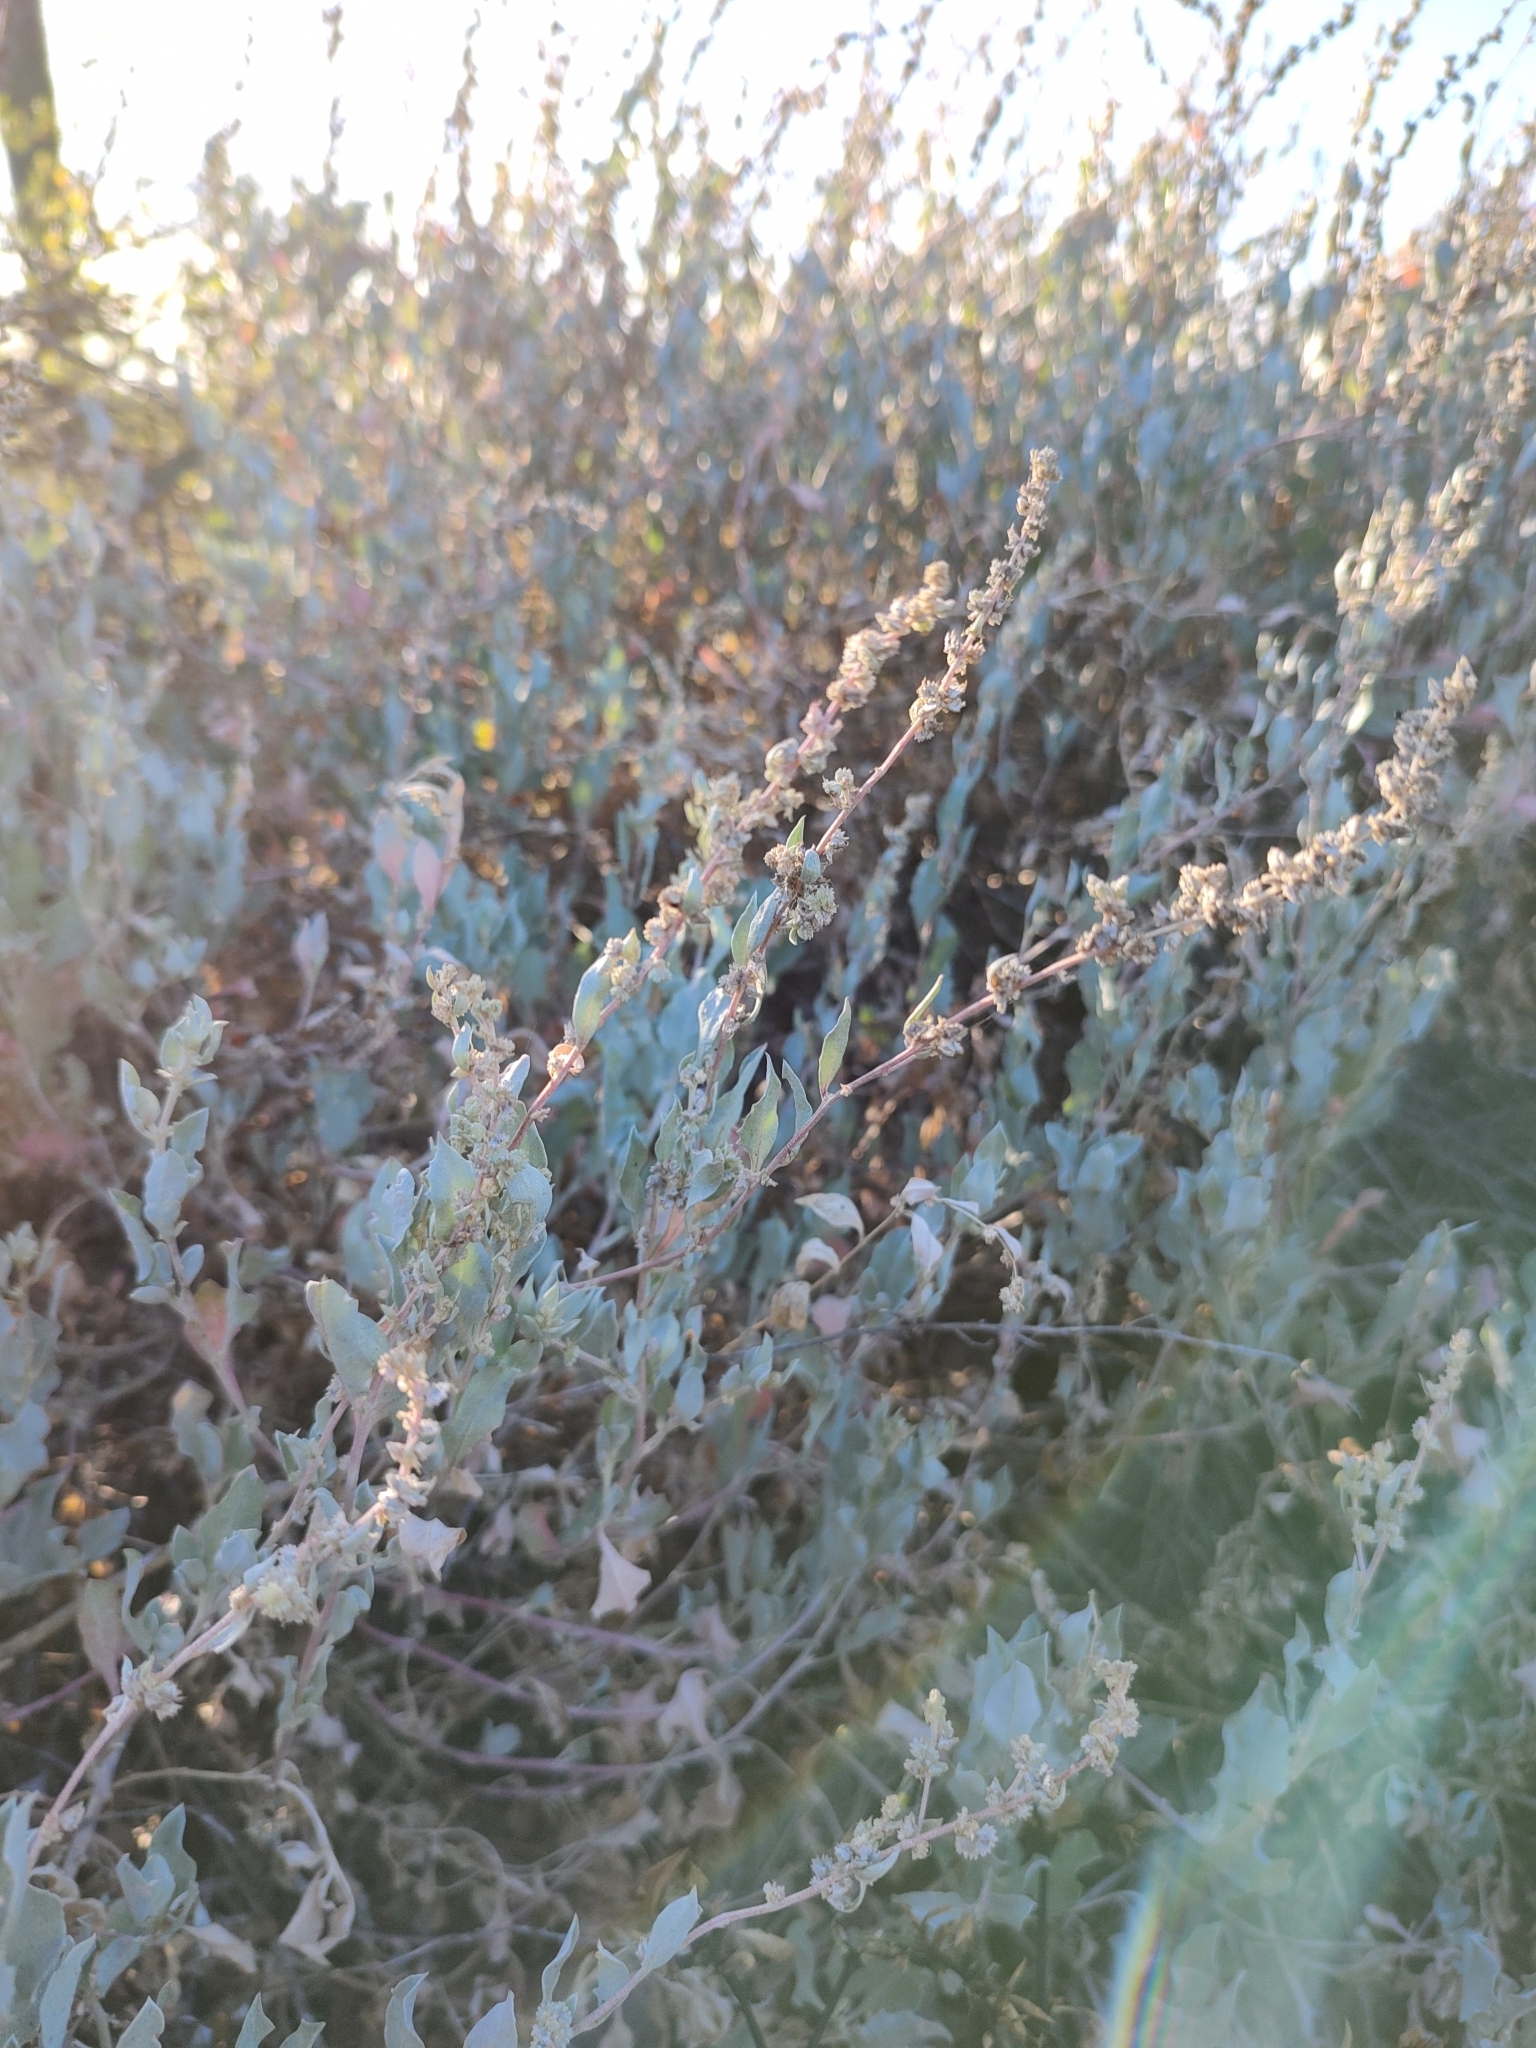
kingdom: Plantae
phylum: Tracheophyta
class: Magnoliopsida
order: Caryophyllales
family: Amaranthaceae
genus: Atriplex
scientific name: Atriplex barclayana
